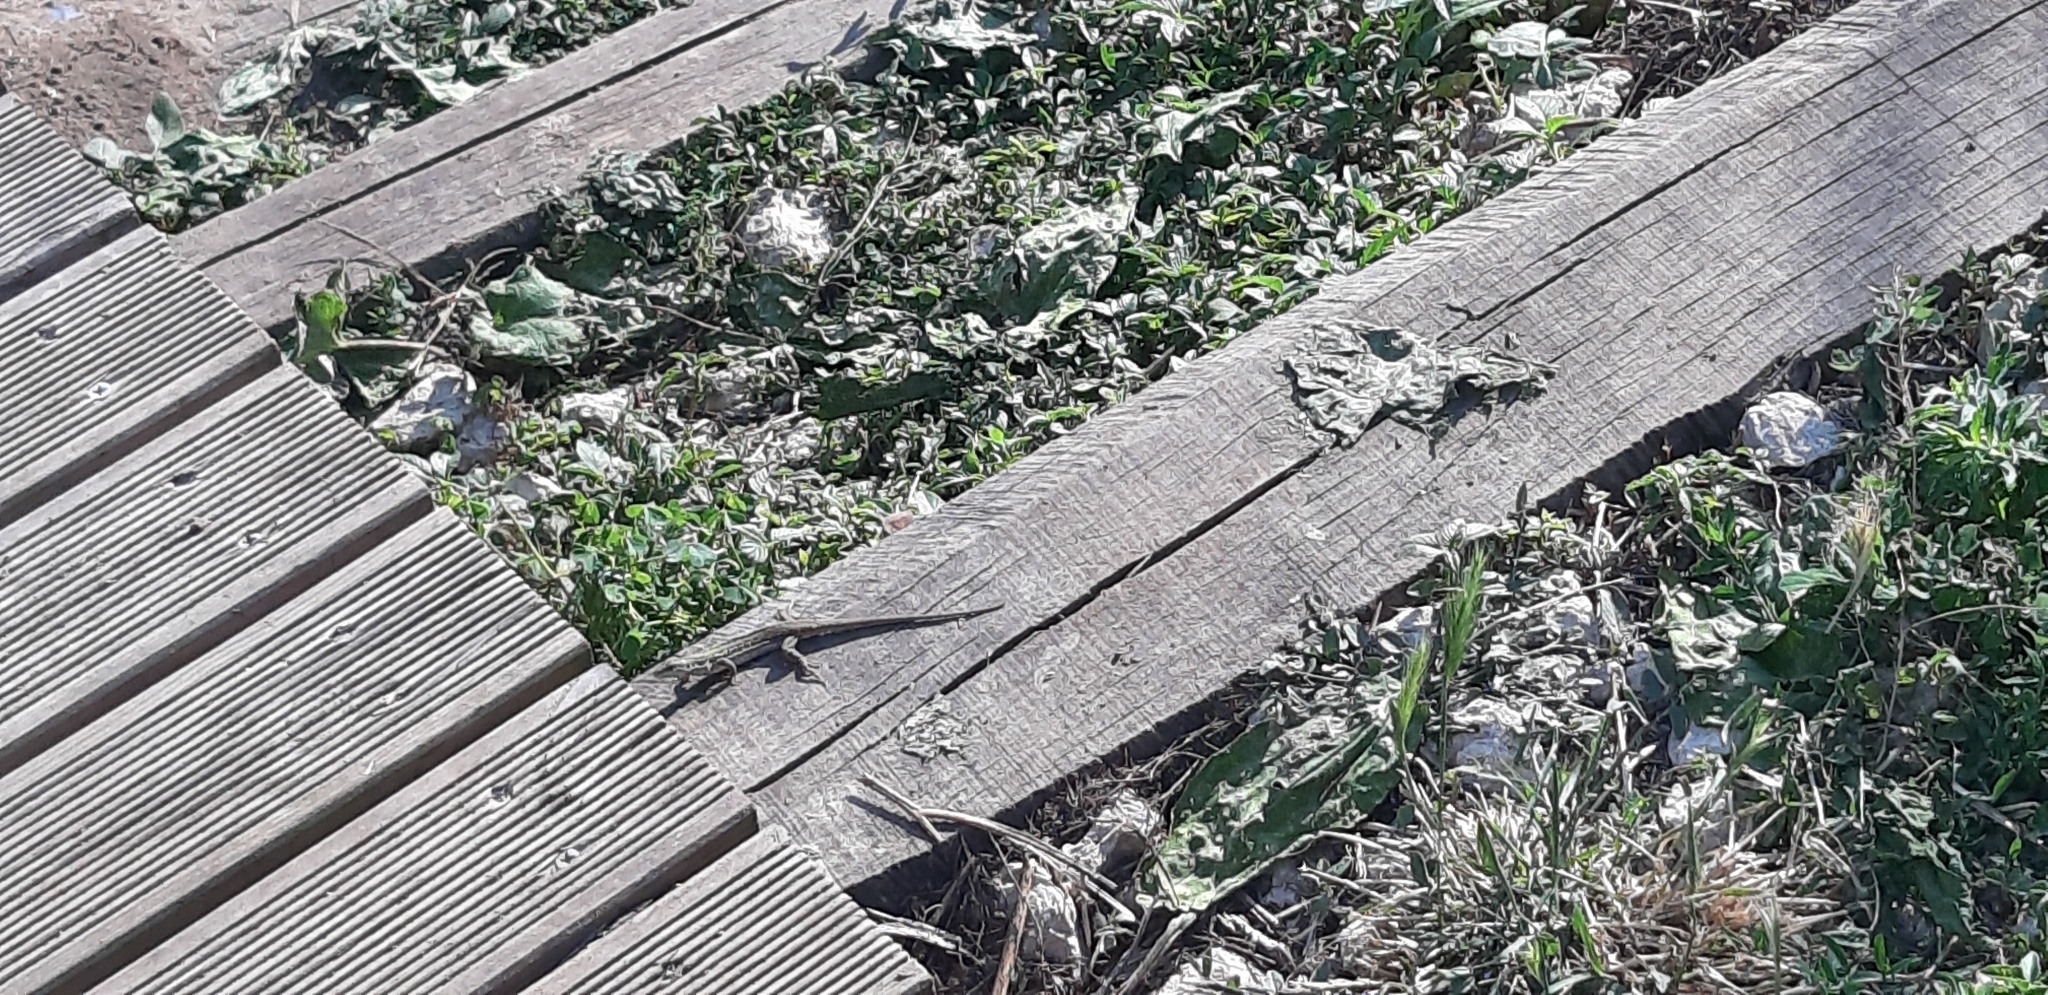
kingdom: Animalia
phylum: Chordata
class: Squamata
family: Lacertidae
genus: Podarcis
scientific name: Podarcis siculus
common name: Italian wall lizard
